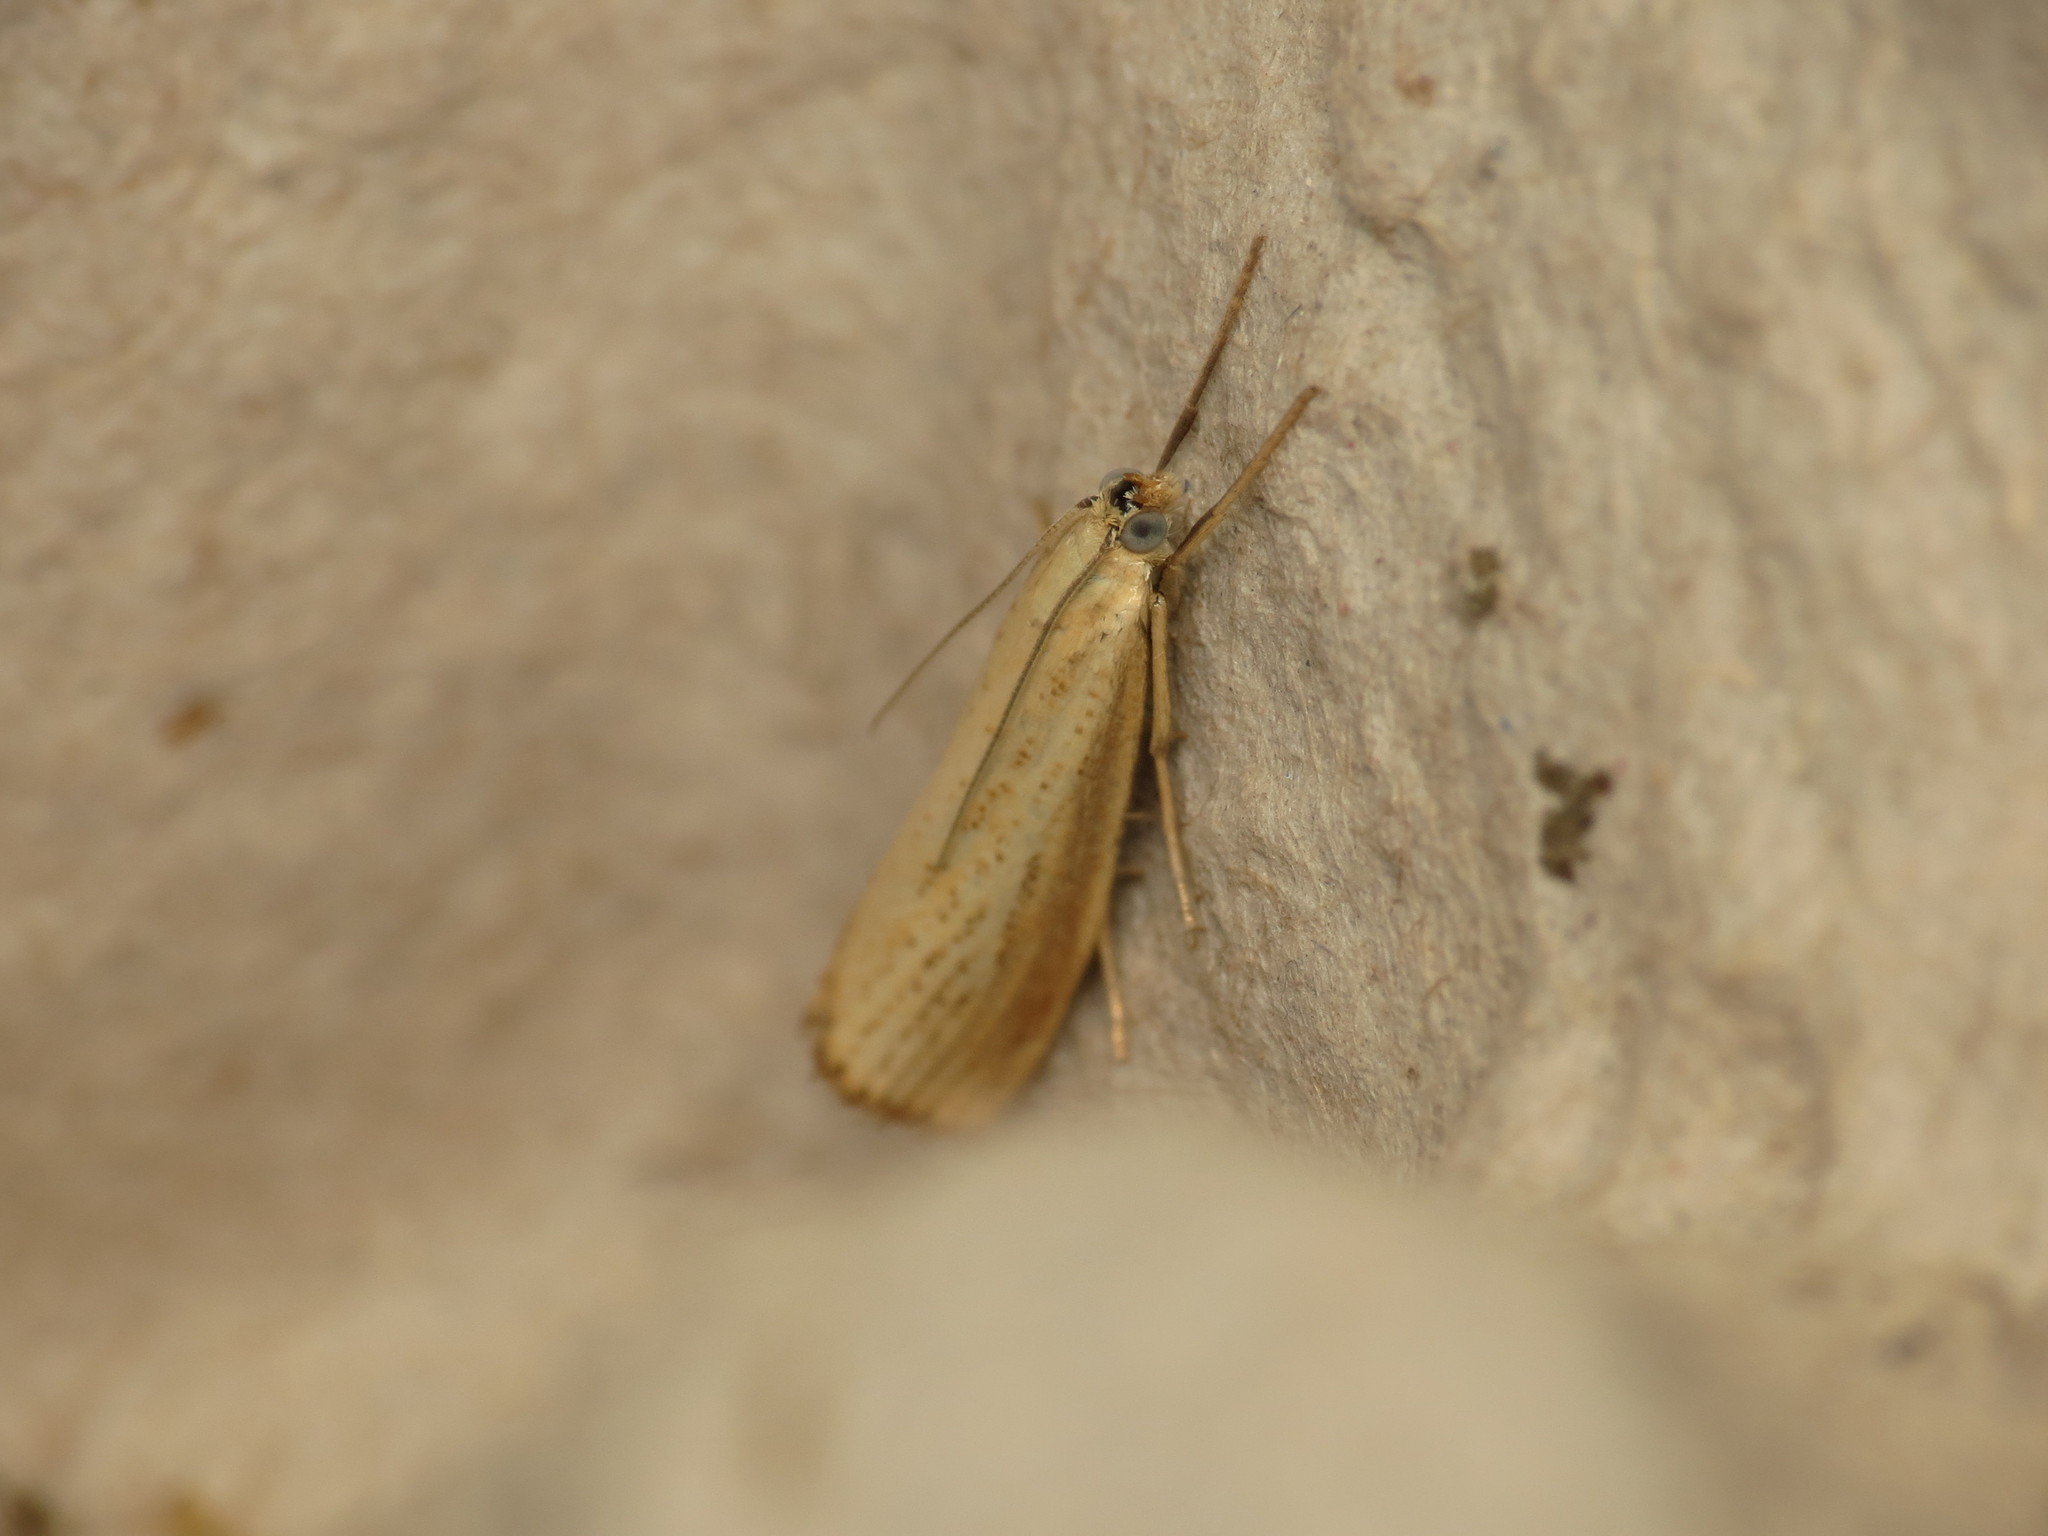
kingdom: Animalia
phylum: Arthropoda
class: Insecta
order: Lepidoptera
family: Crambidae
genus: Agriphila
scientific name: Agriphila straminella
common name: Straw grass-veneer
